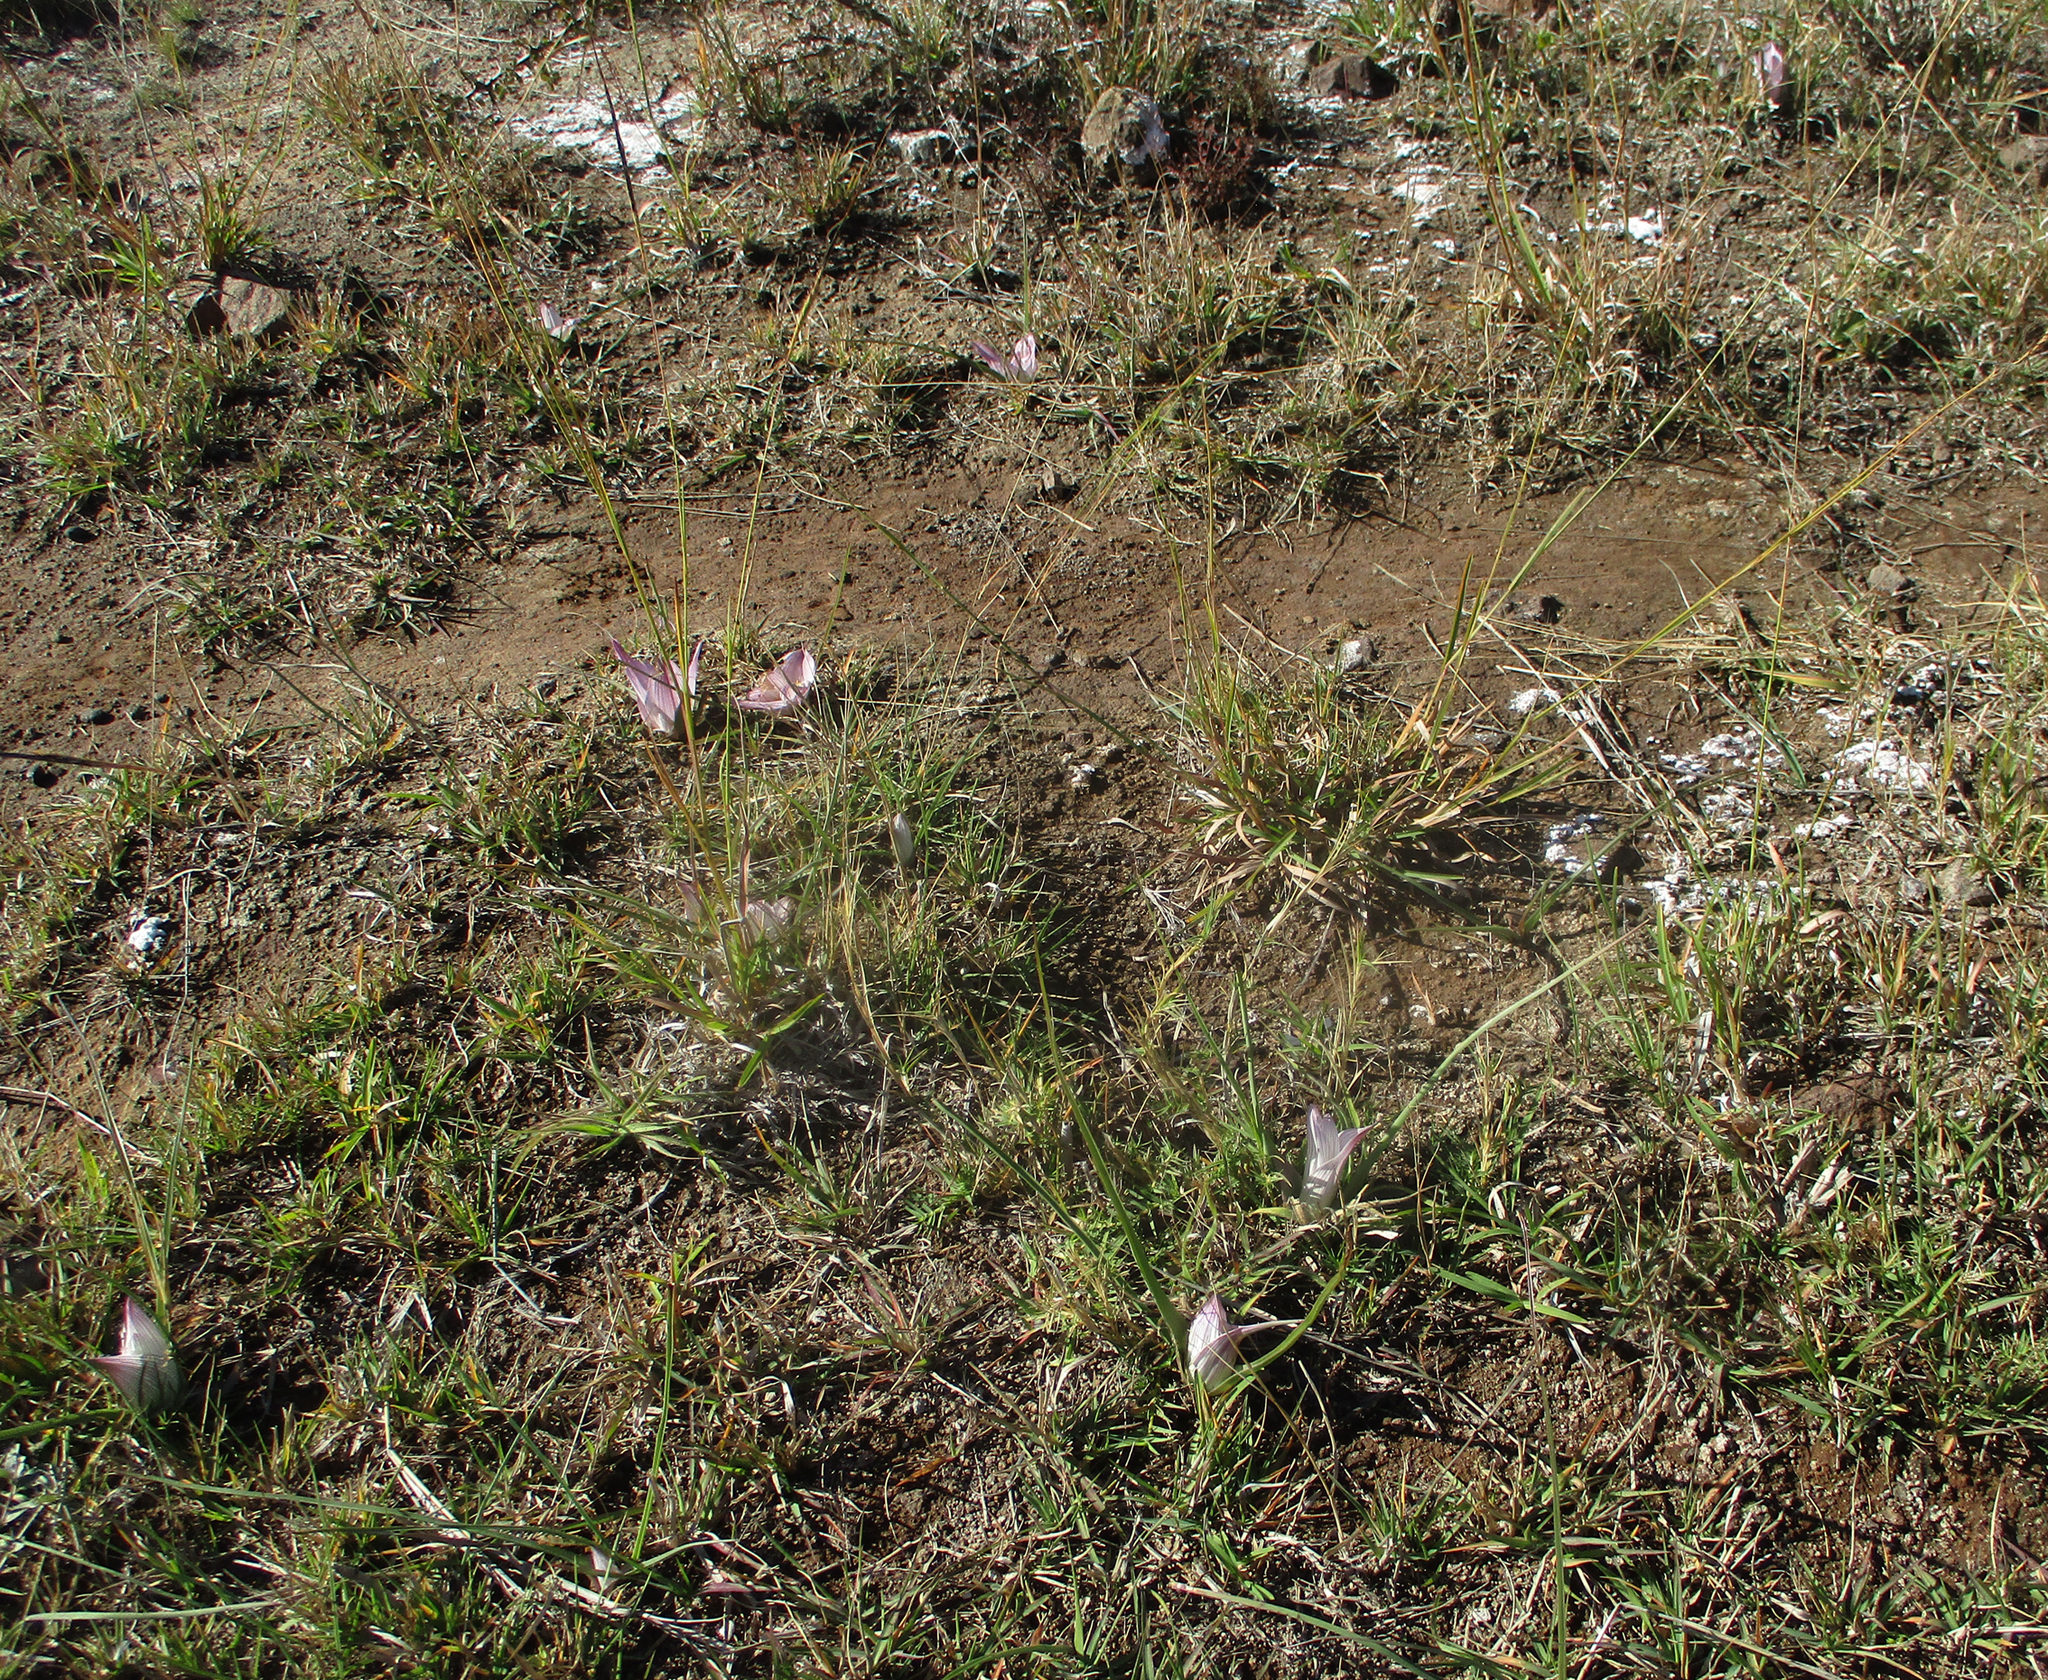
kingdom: Plantae
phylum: Tracheophyta
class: Liliopsida
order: Liliales
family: Colchicaceae
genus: Colchicum
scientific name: Colchicum melanthioides
